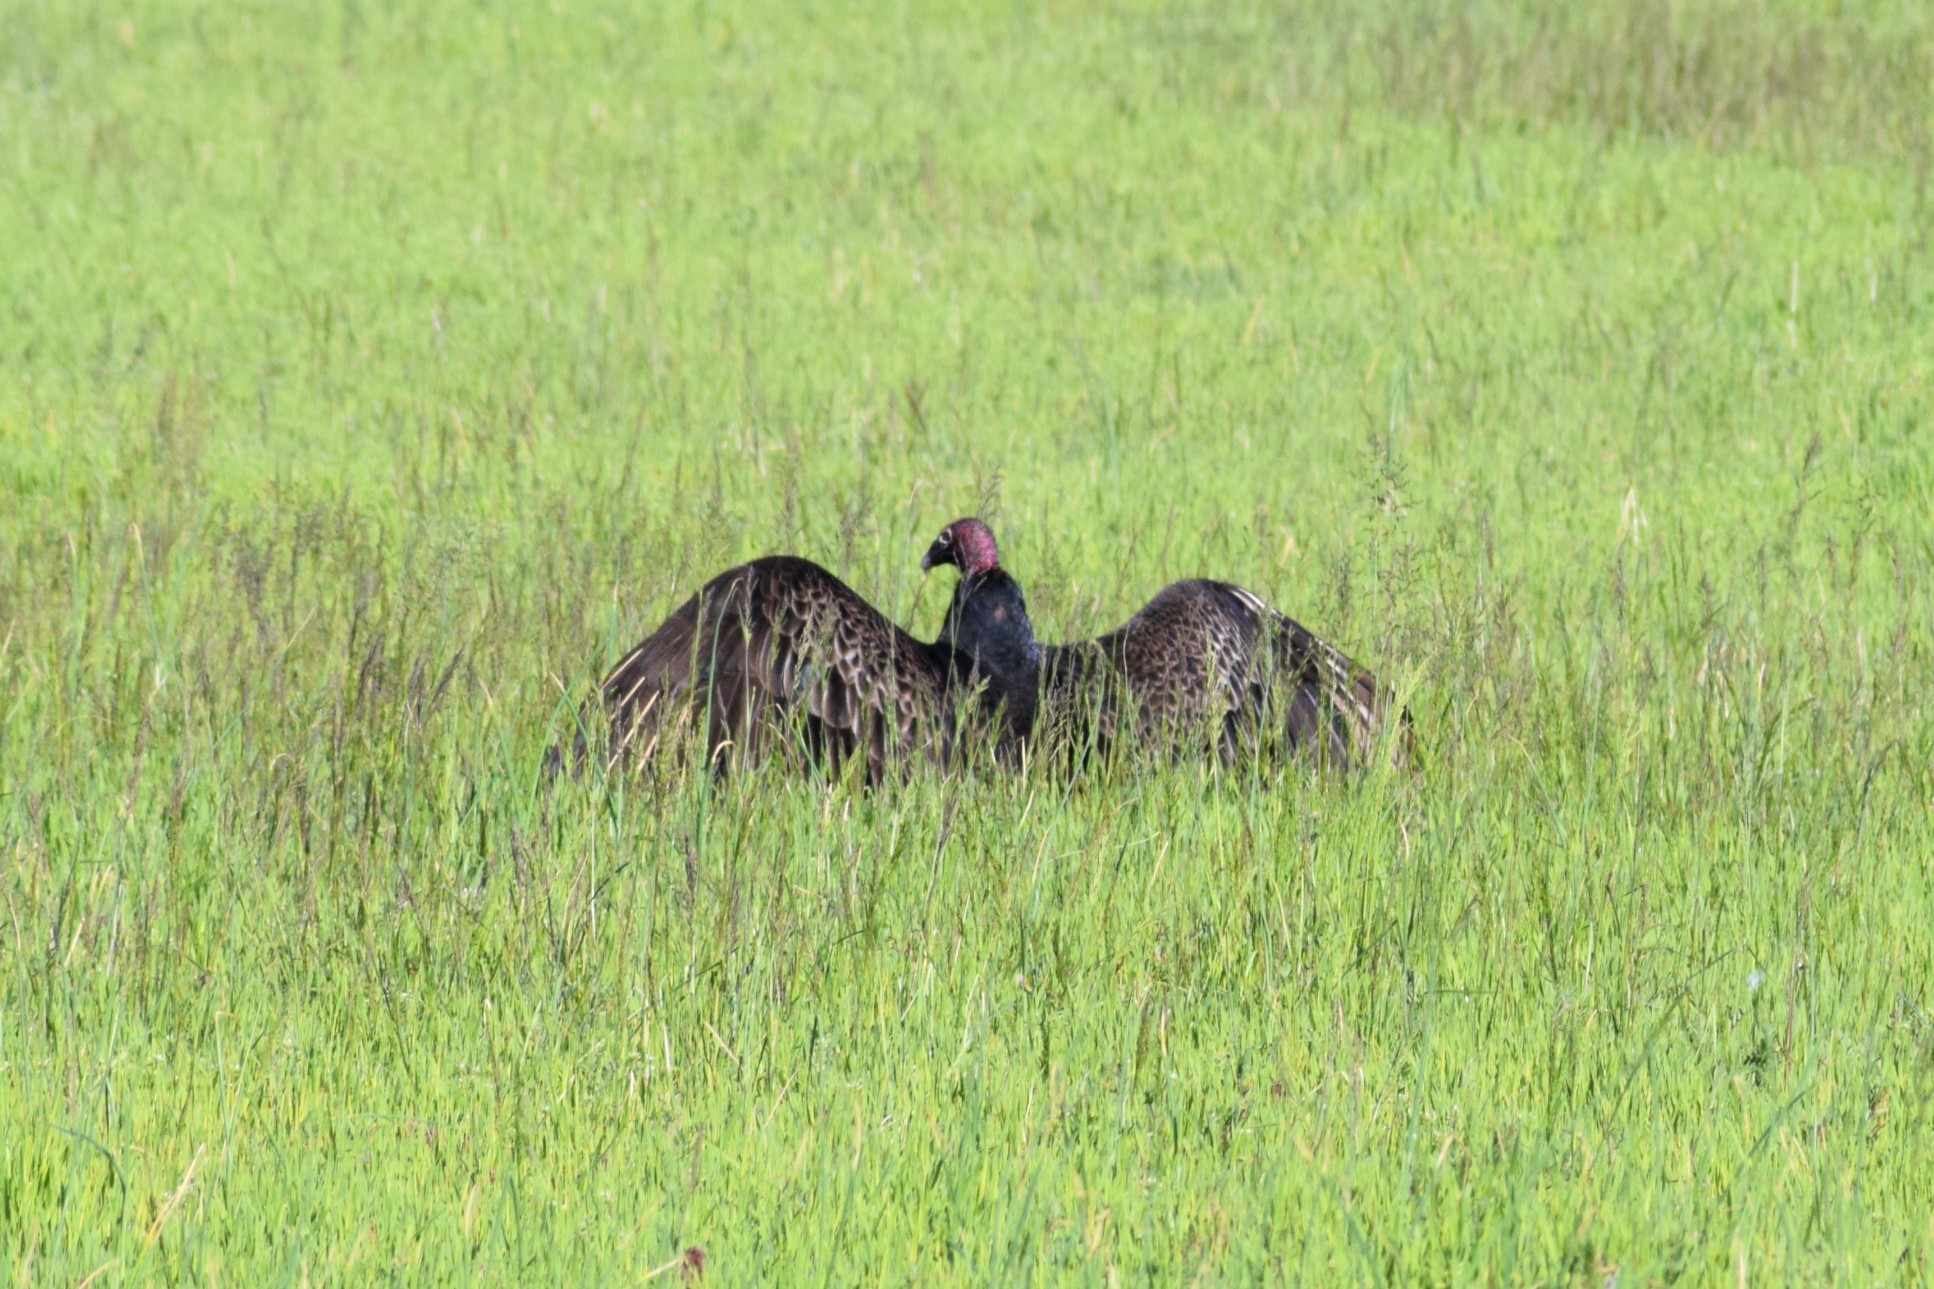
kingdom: Animalia
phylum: Chordata
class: Aves
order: Accipitriformes
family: Cathartidae
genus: Cathartes
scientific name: Cathartes aura
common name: Turkey vulture
